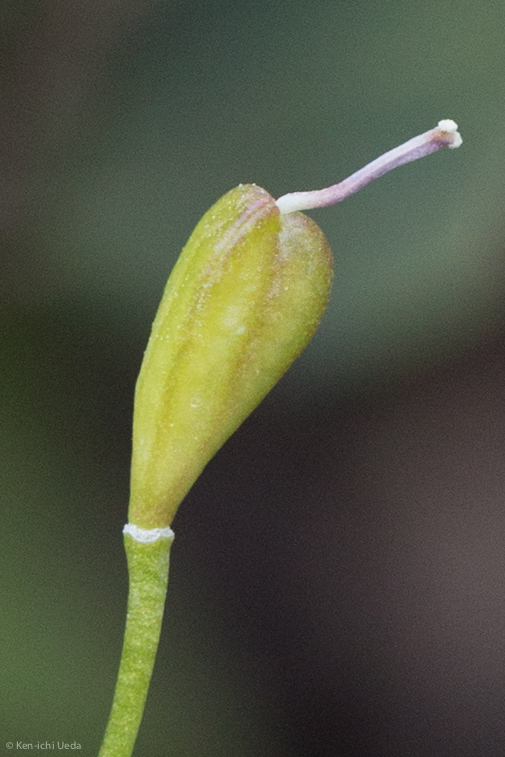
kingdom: Plantae
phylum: Tracheophyta
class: Liliopsida
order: Liliales
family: Liliaceae
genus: Erythronium
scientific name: Erythronium purpurascens
